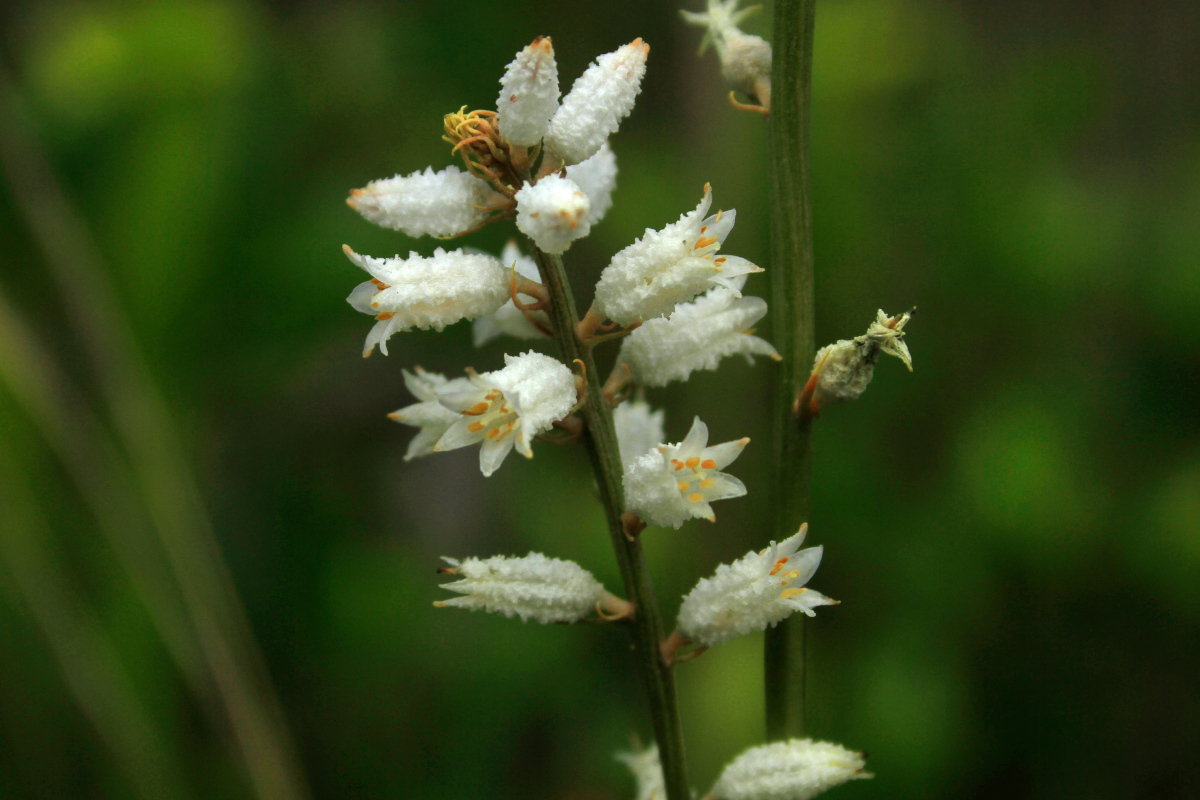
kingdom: Plantae
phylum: Tracheophyta
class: Liliopsida
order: Dioscoreales
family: Nartheciaceae
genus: Aletris
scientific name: Aletris farinosa
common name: Colicroot
